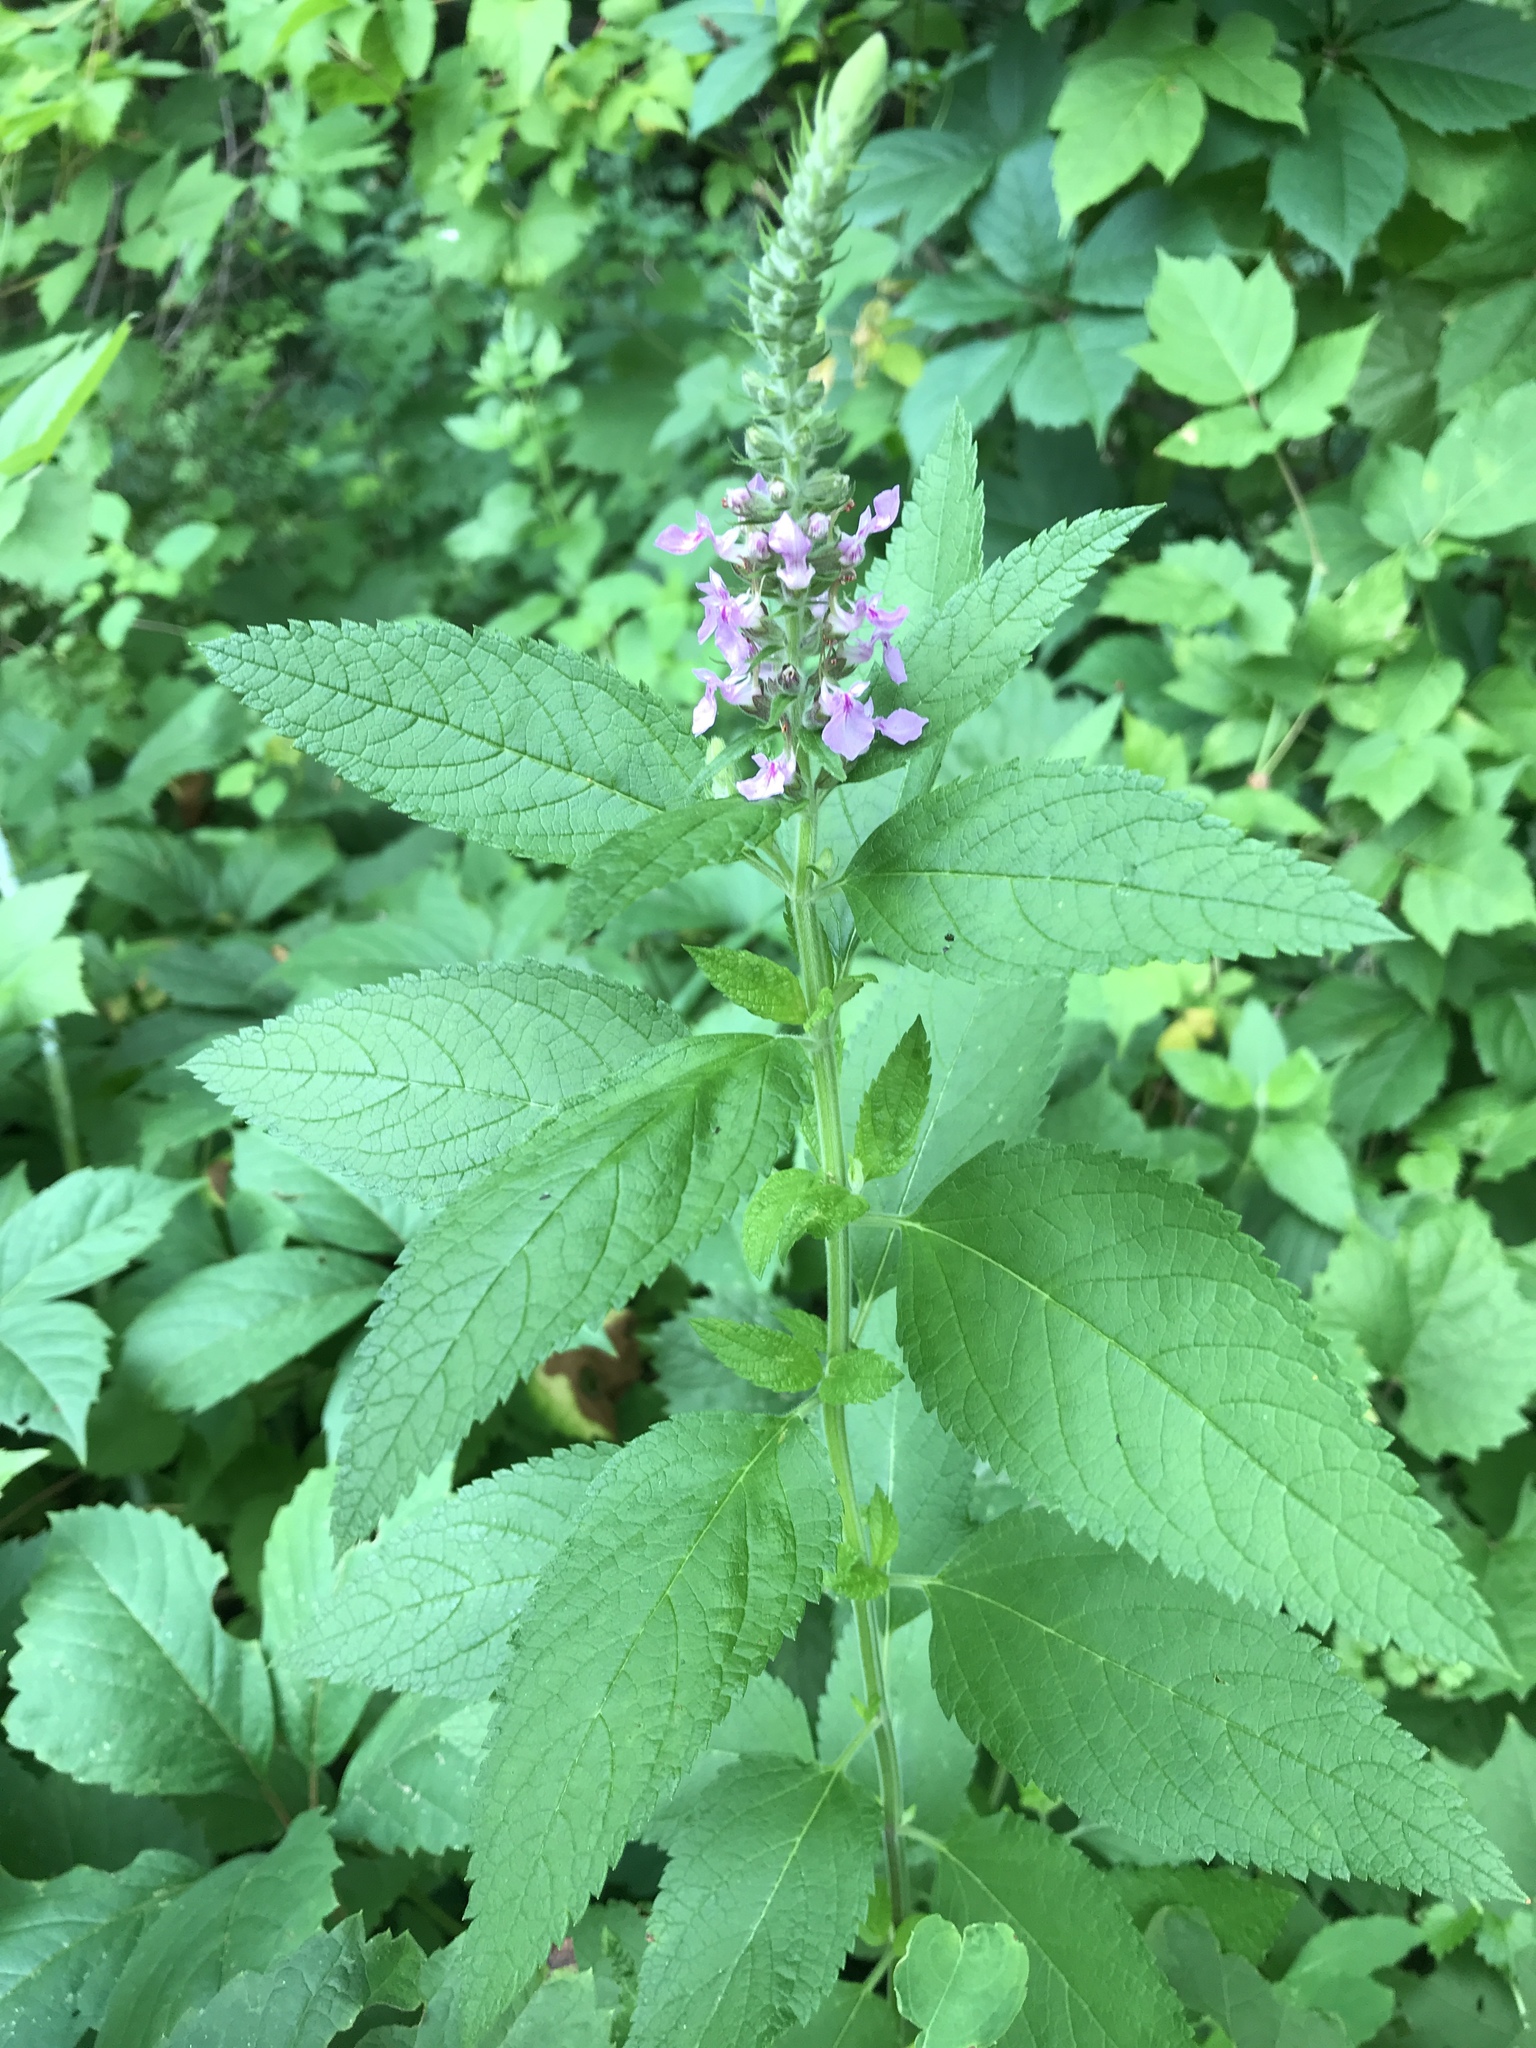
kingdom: Plantae
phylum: Tracheophyta
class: Magnoliopsida
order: Lamiales
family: Lamiaceae
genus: Teucrium
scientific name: Teucrium canadense
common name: American germander
